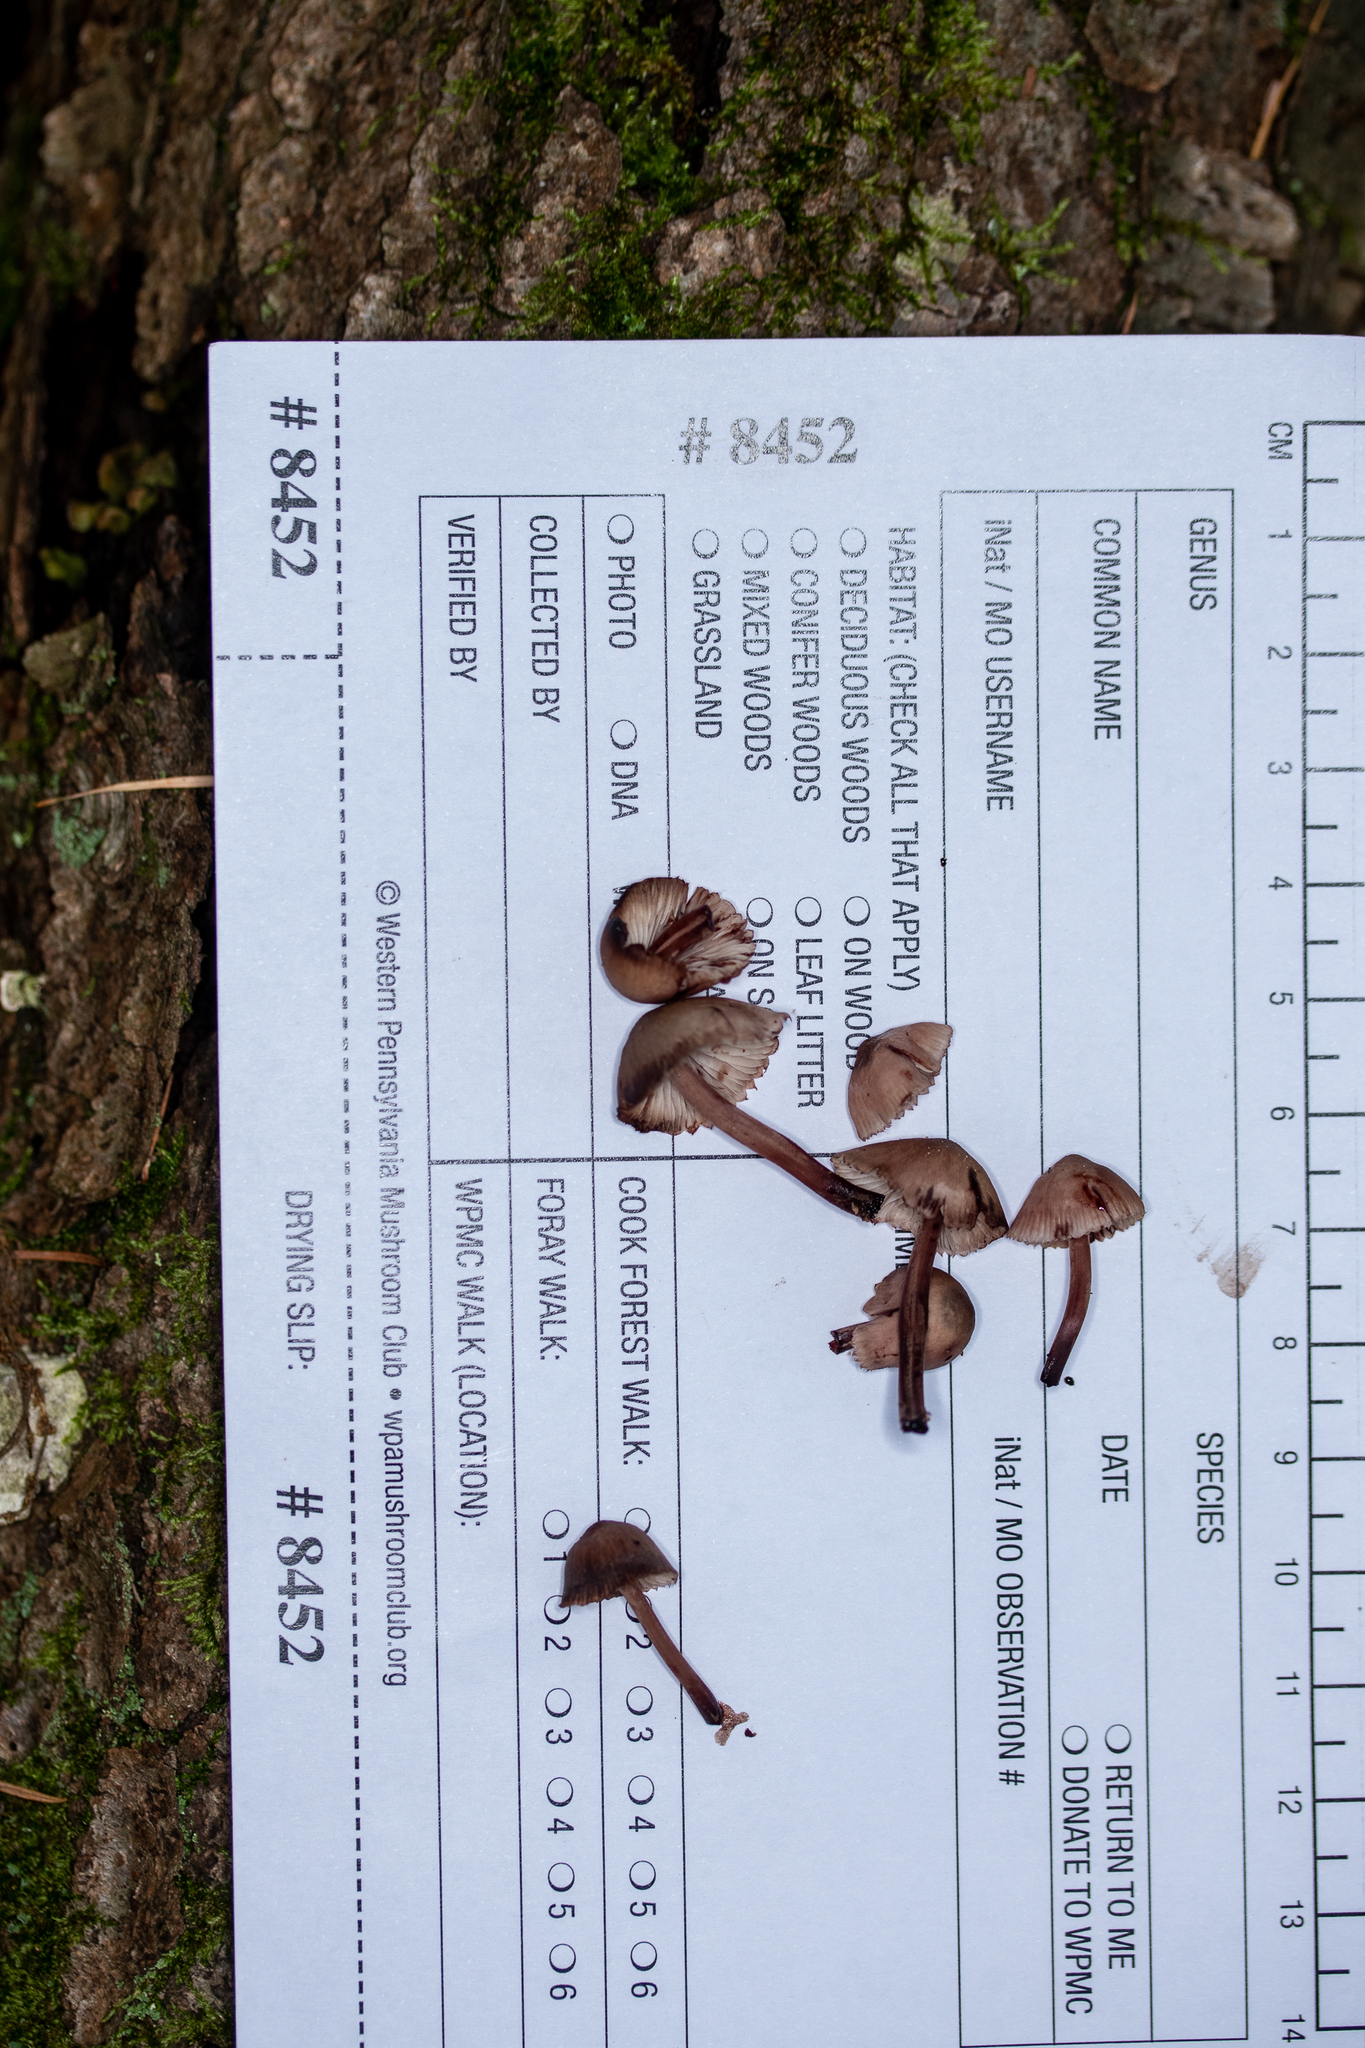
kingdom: Fungi
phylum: Basidiomycota
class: Agaricomycetes
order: Agaricales
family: Mycenaceae
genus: Mycena
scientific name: Mycena haematopus
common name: Burgundydrop bonnet
